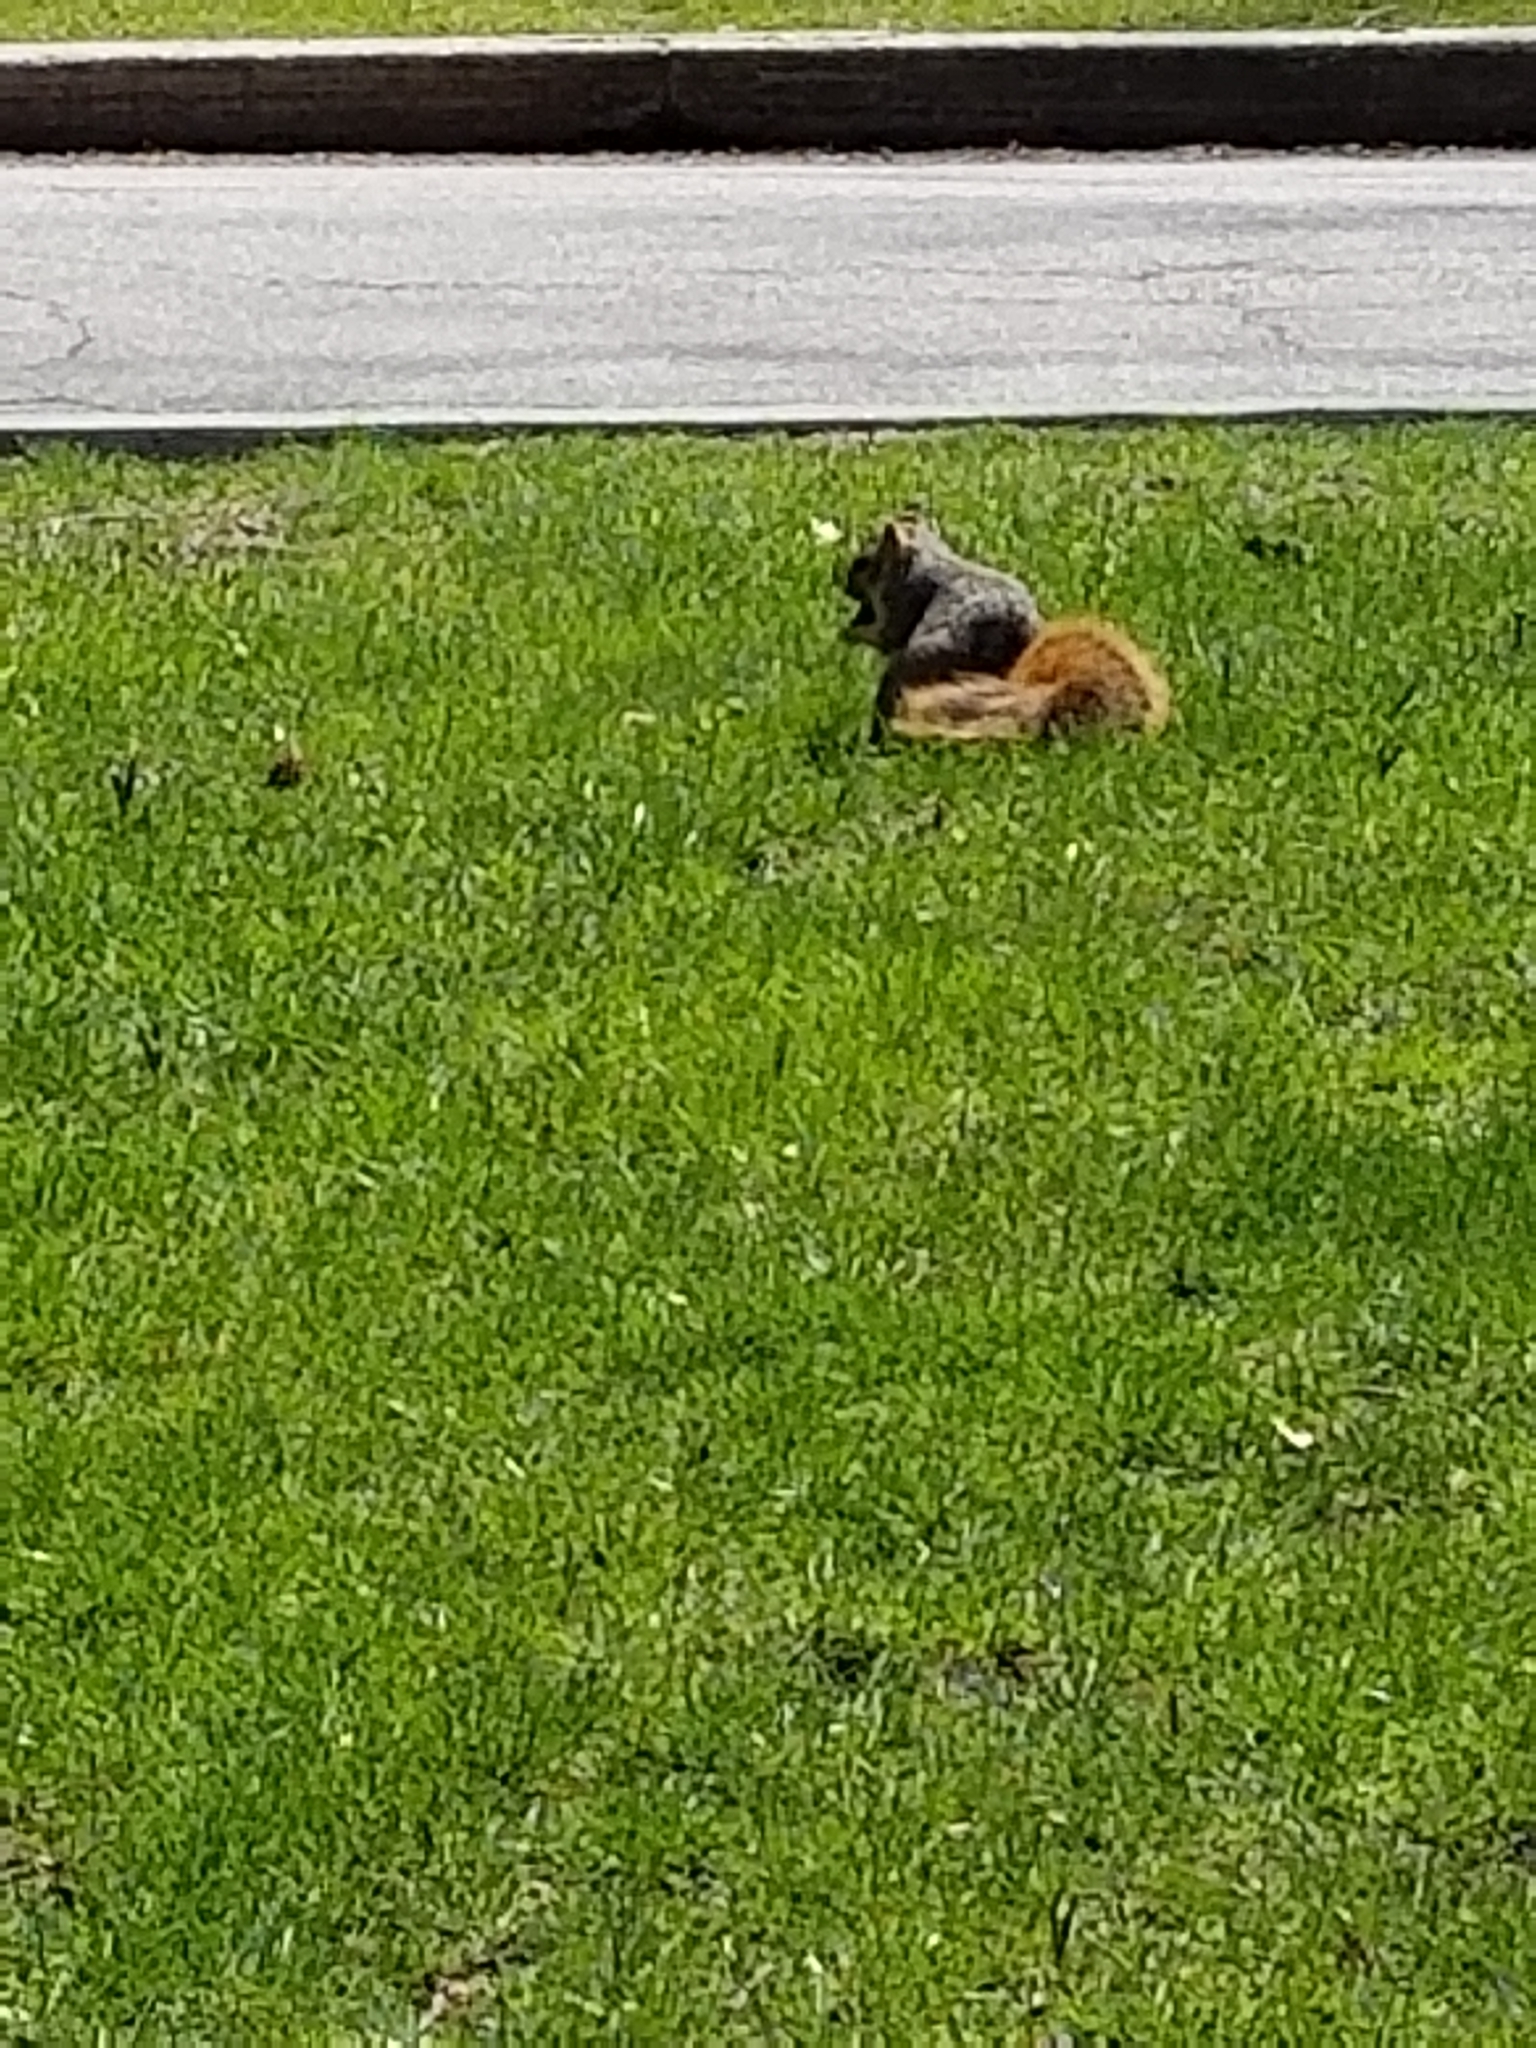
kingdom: Animalia
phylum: Chordata
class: Mammalia
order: Rodentia
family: Sciuridae
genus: Sciurus
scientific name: Sciurus niger
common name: Fox squirrel
